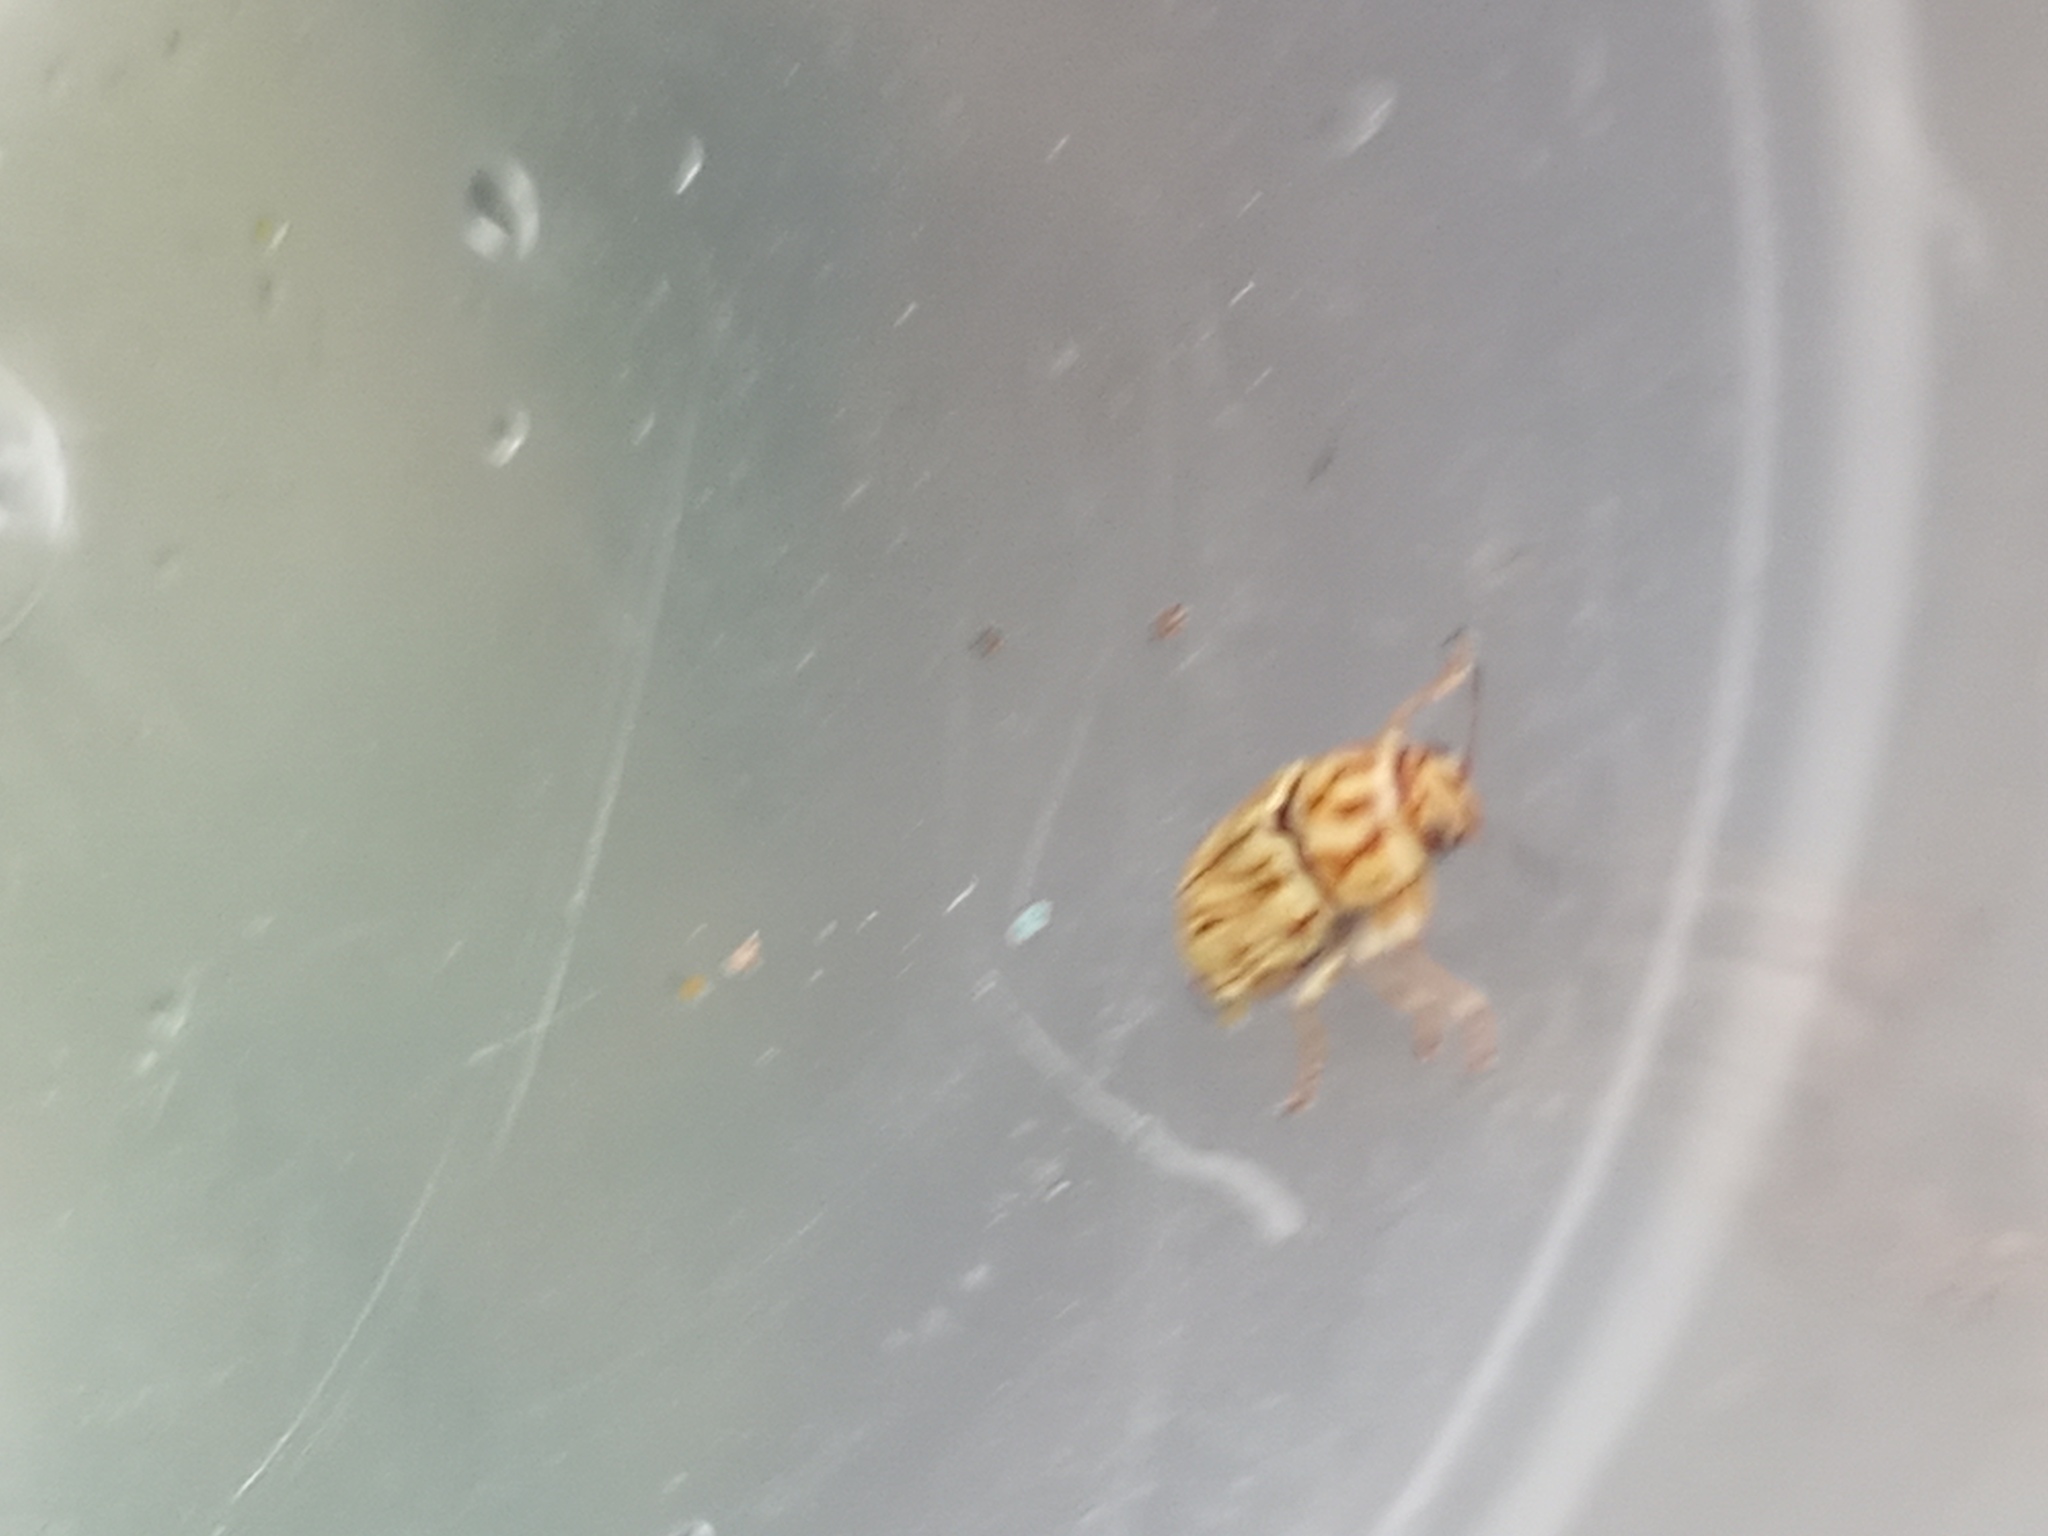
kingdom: Animalia
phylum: Arthropoda
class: Insecta
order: Coleoptera
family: Chrysomelidae
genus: Pachybrachis
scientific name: Pachybrachis
